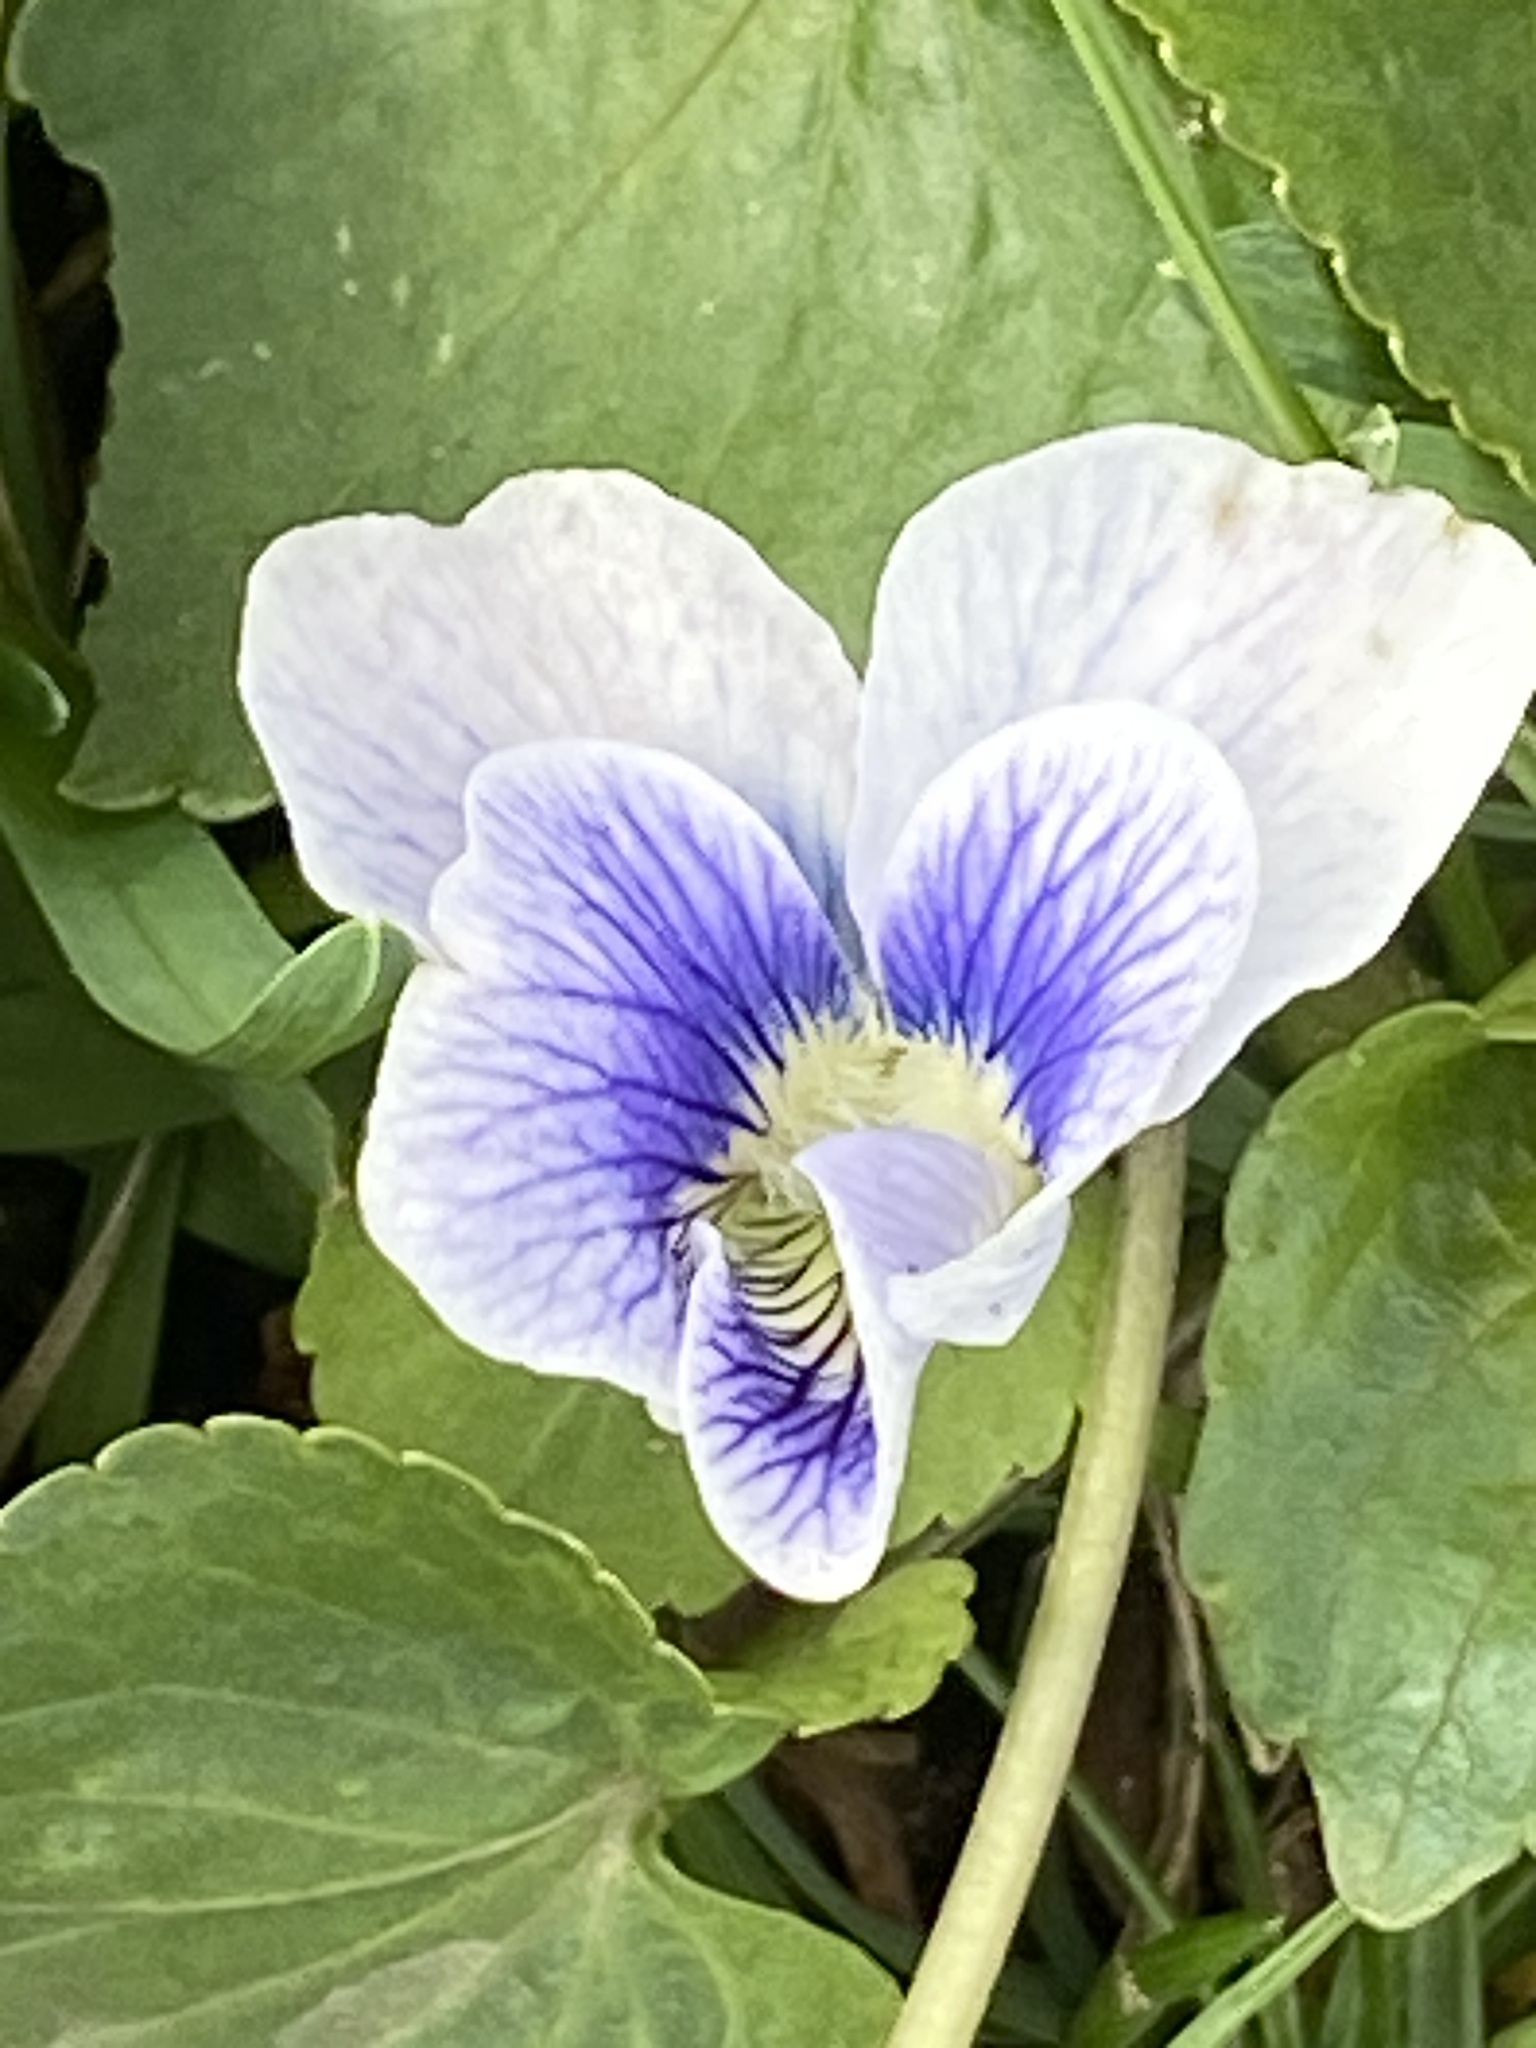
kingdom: Plantae
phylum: Tracheophyta
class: Magnoliopsida
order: Malpighiales
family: Violaceae
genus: Viola
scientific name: Viola sororia
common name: Dooryard violet
